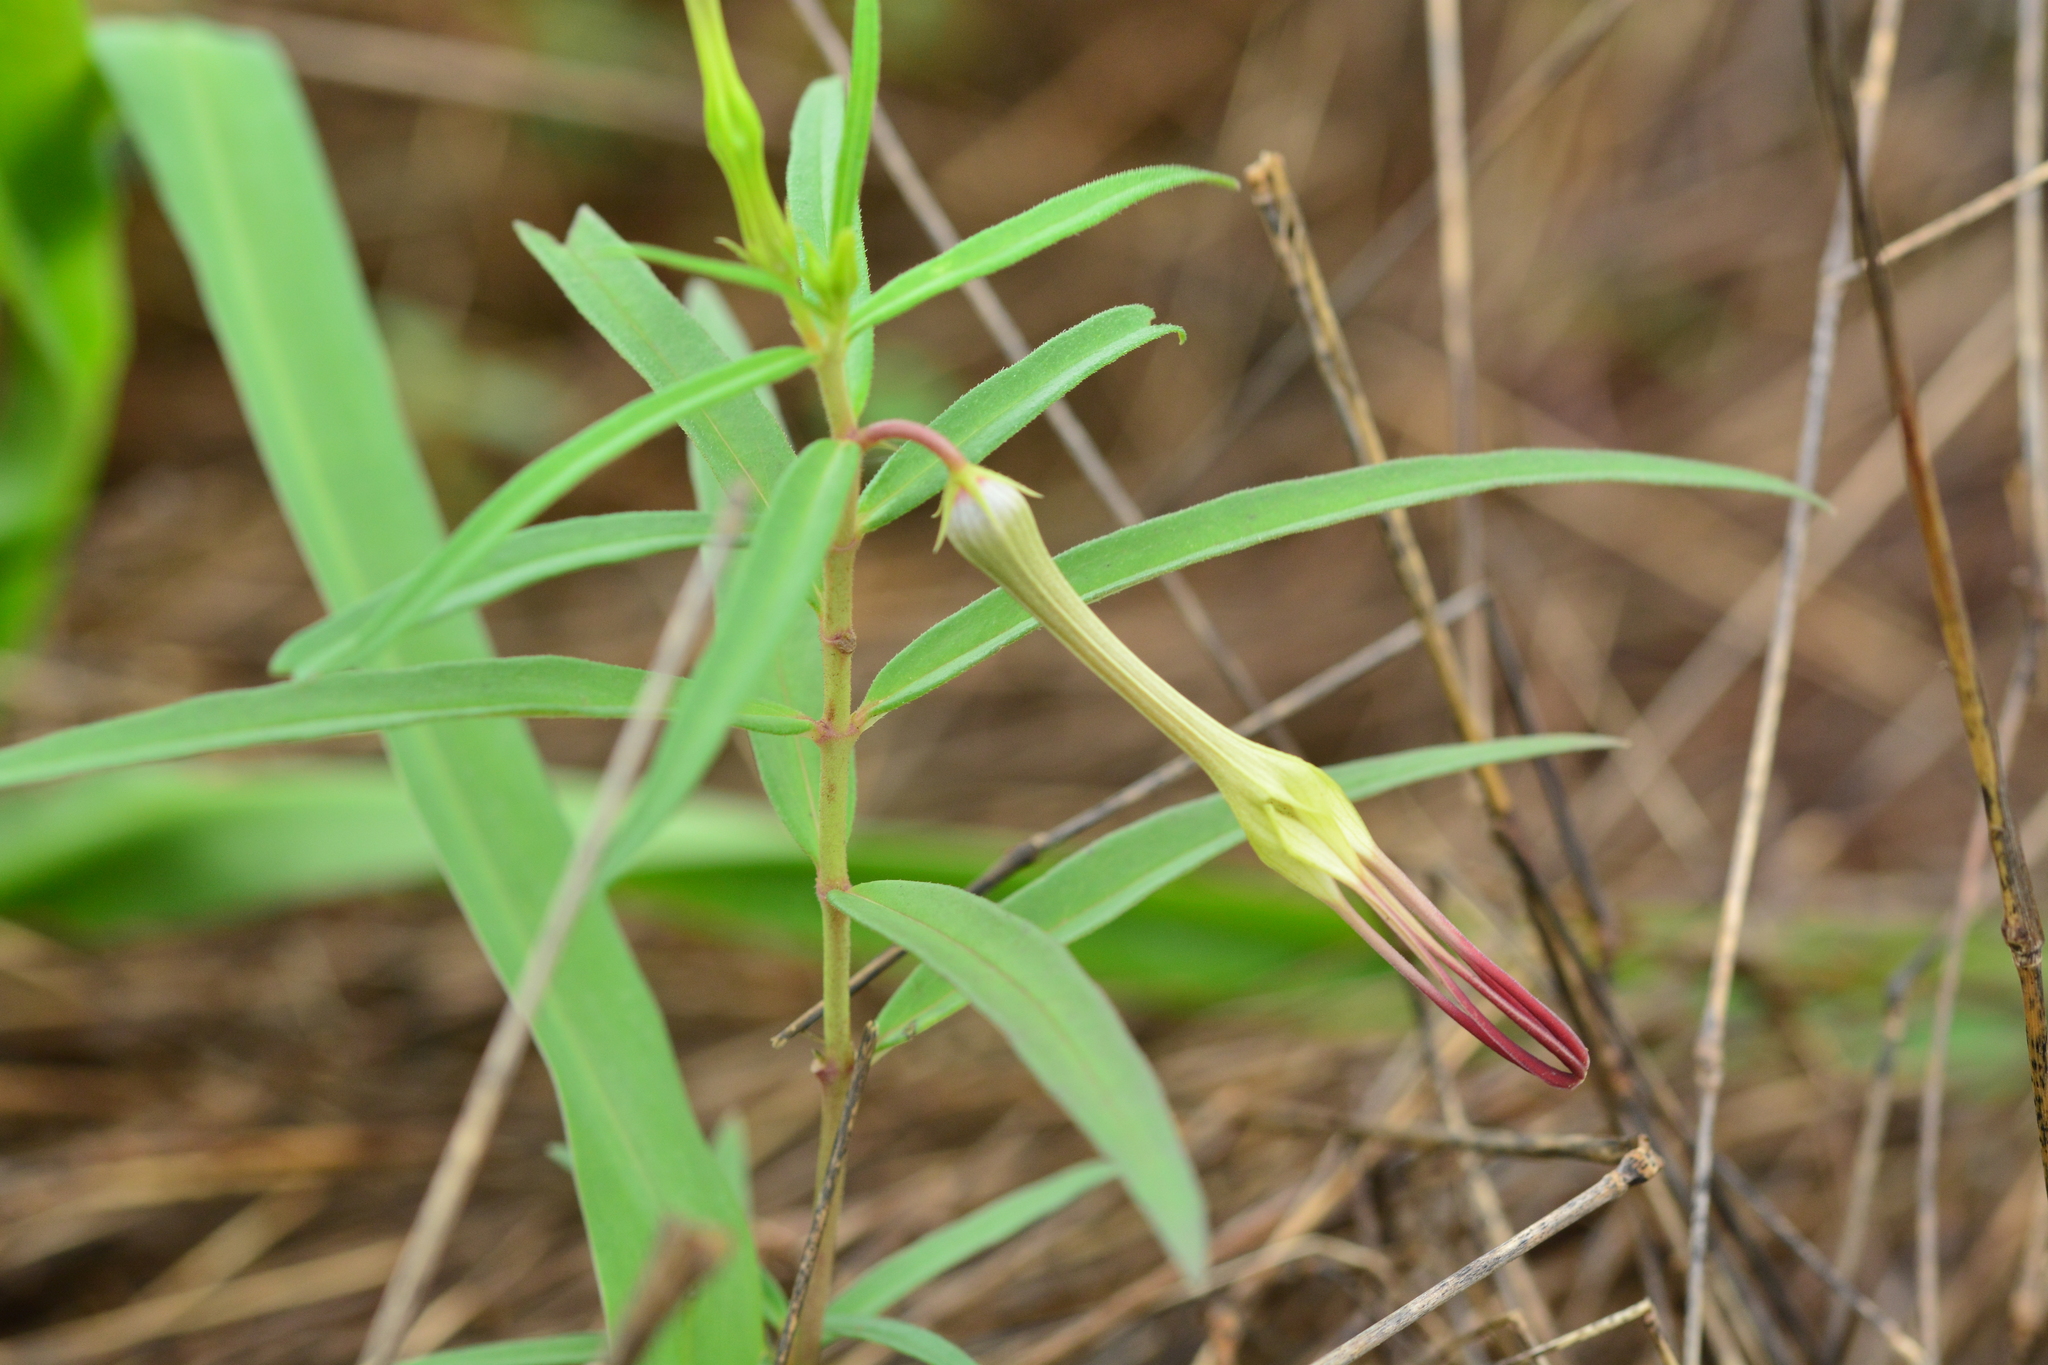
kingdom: Plantae
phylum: Tracheophyta
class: Magnoliopsida
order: Gentianales
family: Apocynaceae
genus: Ceropegia
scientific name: Ceropegia attenuata
